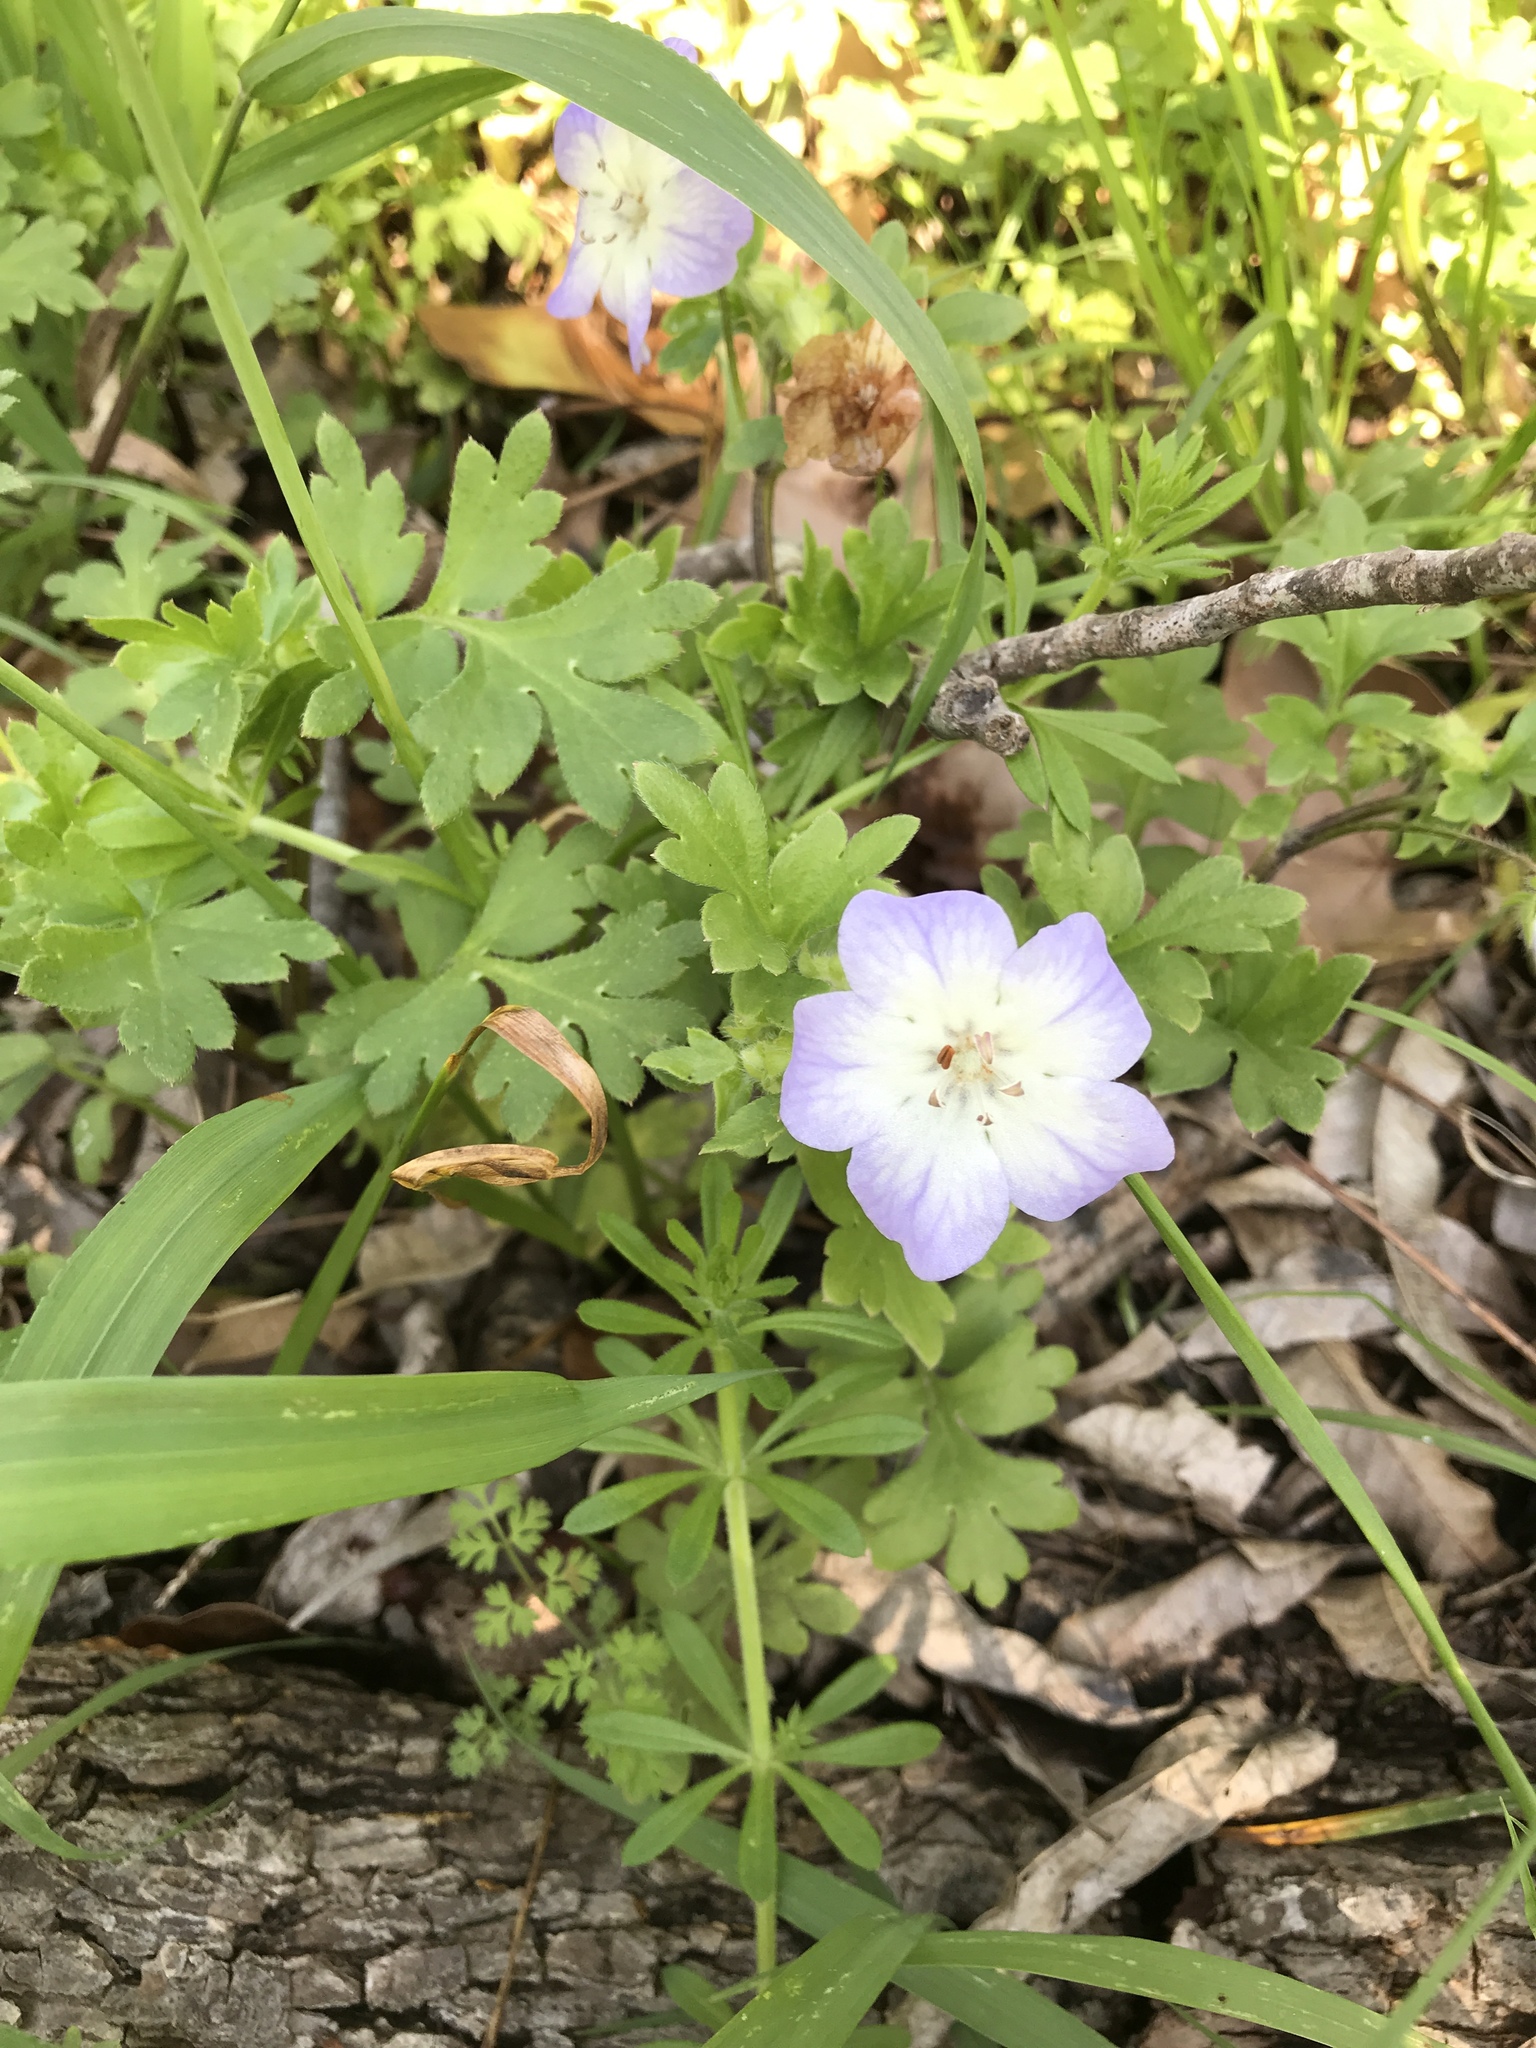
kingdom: Plantae
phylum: Tracheophyta
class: Magnoliopsida
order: Boraginales
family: Hydrophyllaceae
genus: Nemophila
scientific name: Nemophila phacelioides
